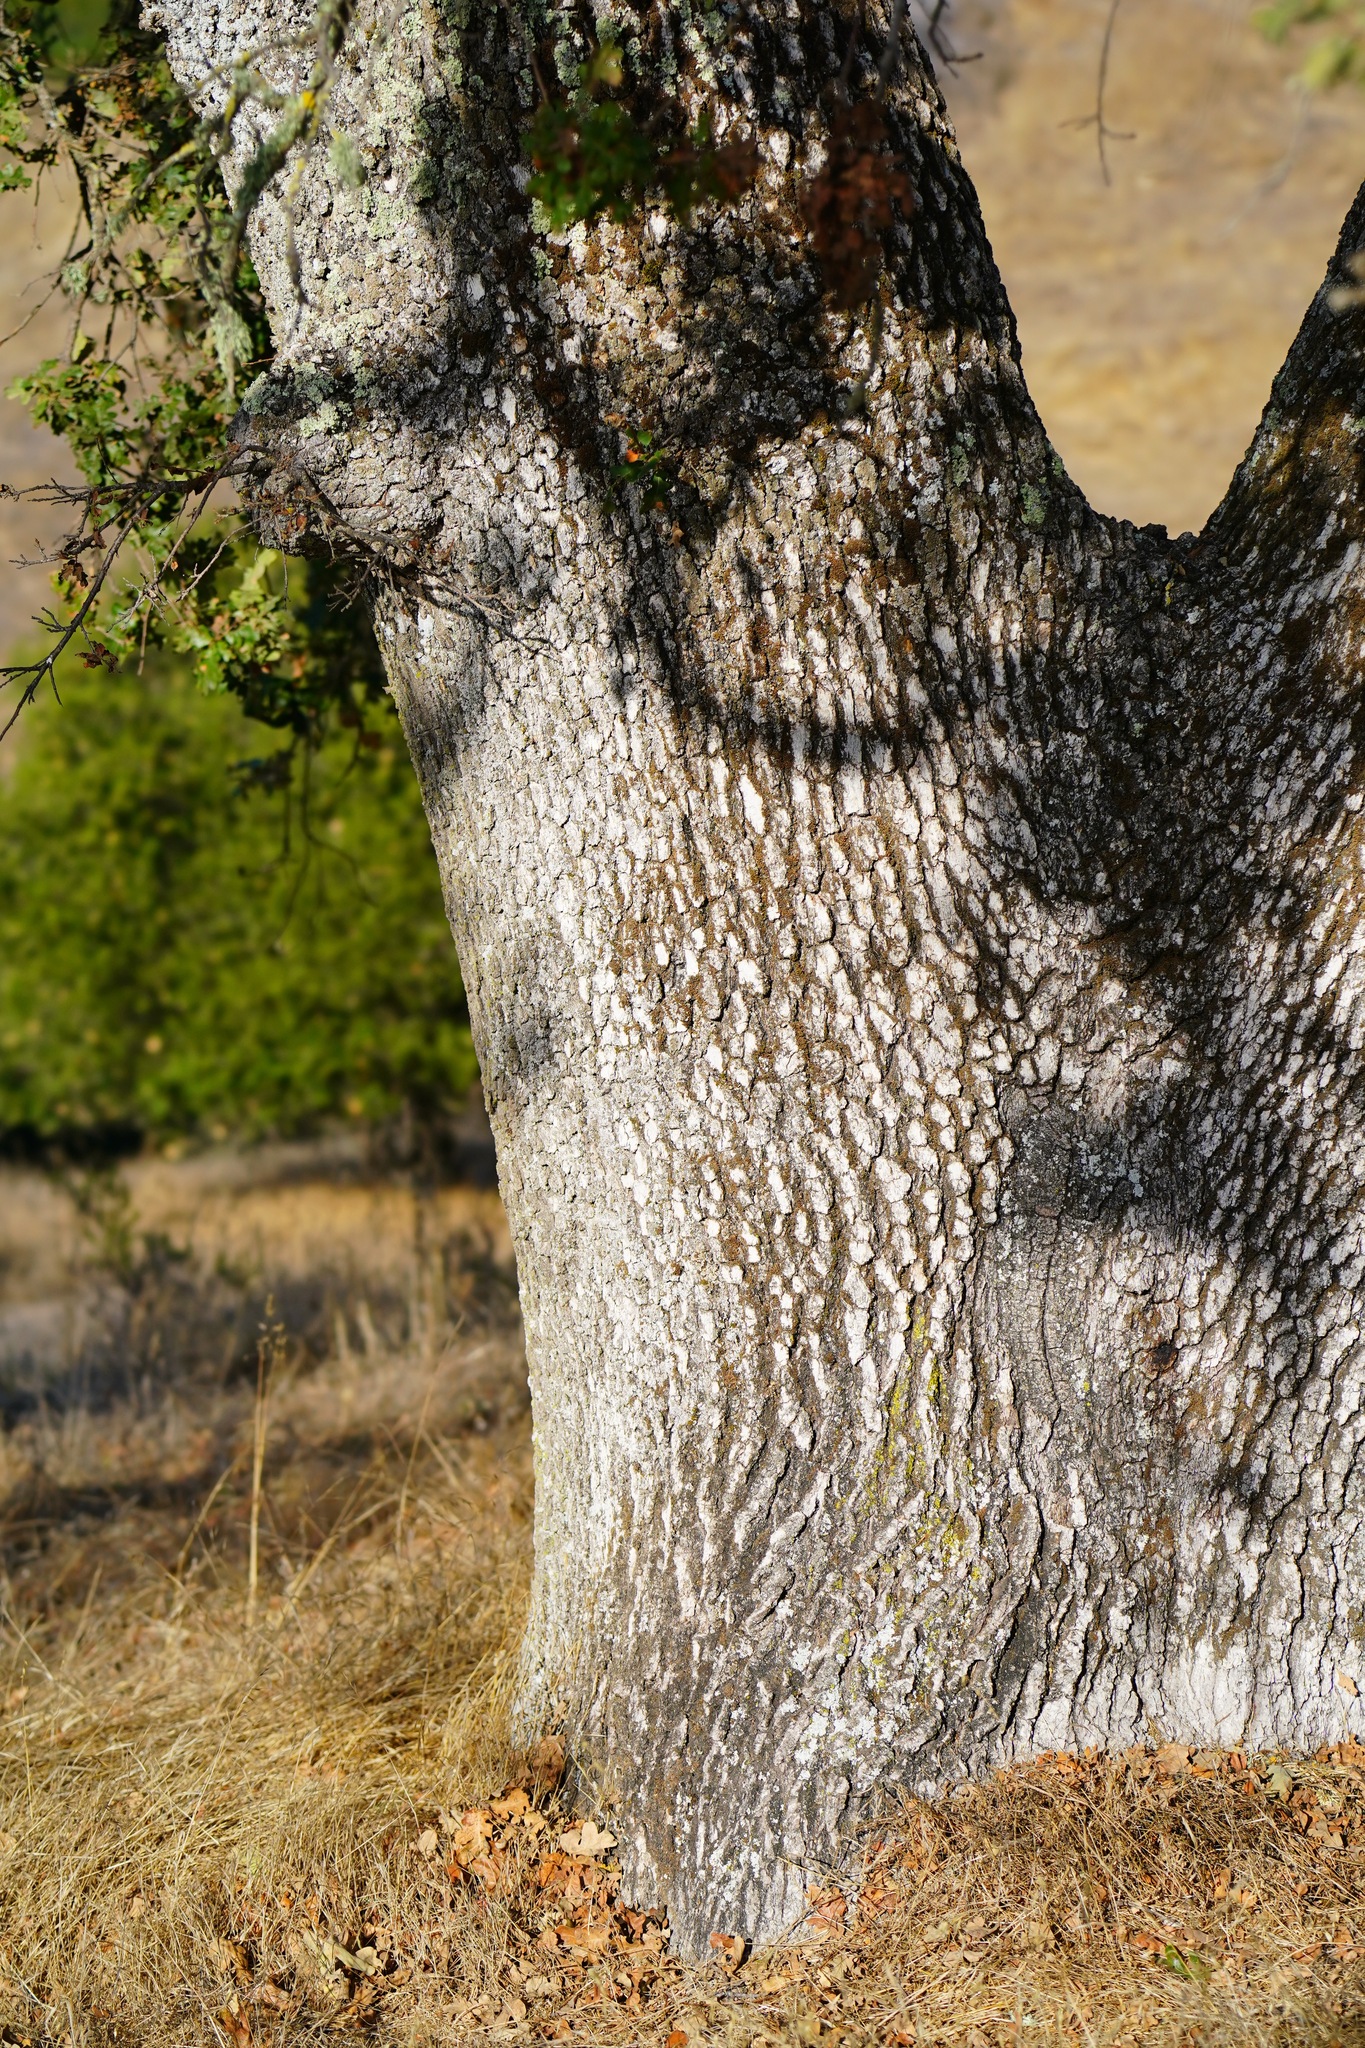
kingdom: Plantae
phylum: Tracheophyta
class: Magnoliopsida
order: Fagales
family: Fagaceae
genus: Quercus
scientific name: Quercus lobata
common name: Valley oak
